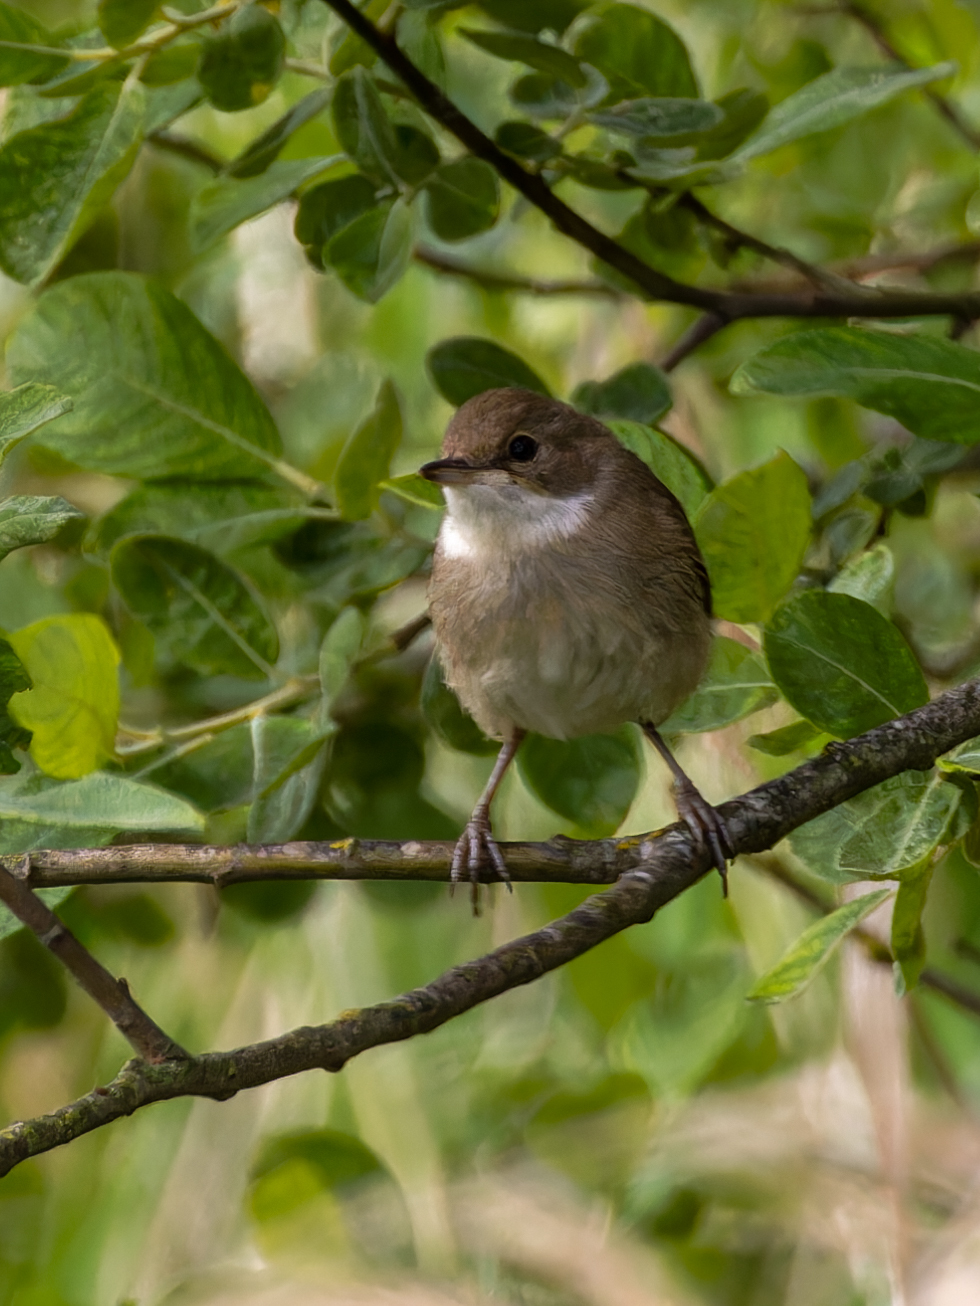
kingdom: Animalia
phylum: Chordata
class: Aves
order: Passeriformes
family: Sylviidae
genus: Sylvia
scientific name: Sylvia communis
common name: Common whitethroat
